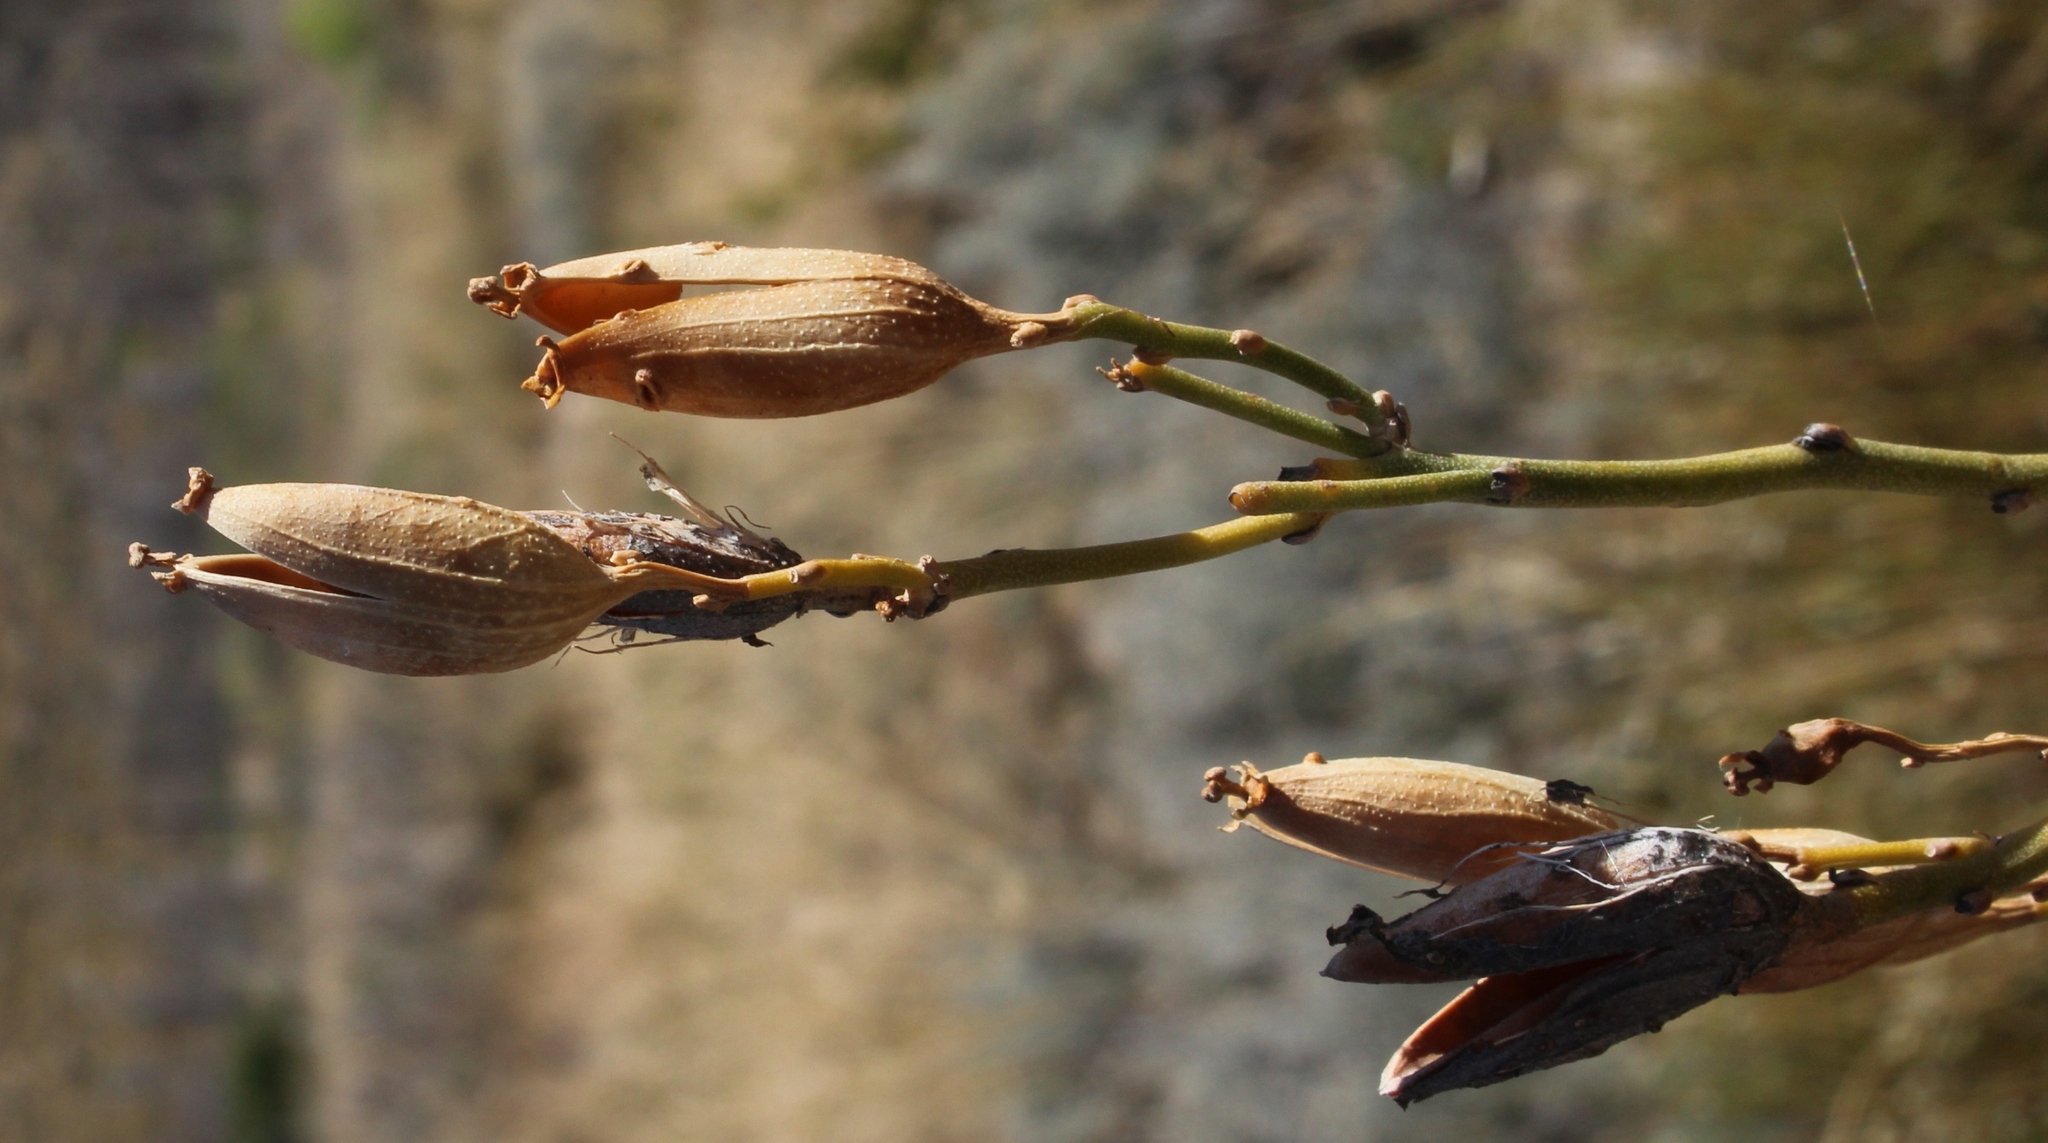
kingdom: Plantae
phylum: Tracheophyta
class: Magnoliopsida
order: Solanales
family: Montiniaceae
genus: Montinia
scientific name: Montinia caryophyllacea
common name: Wild clove-bush
